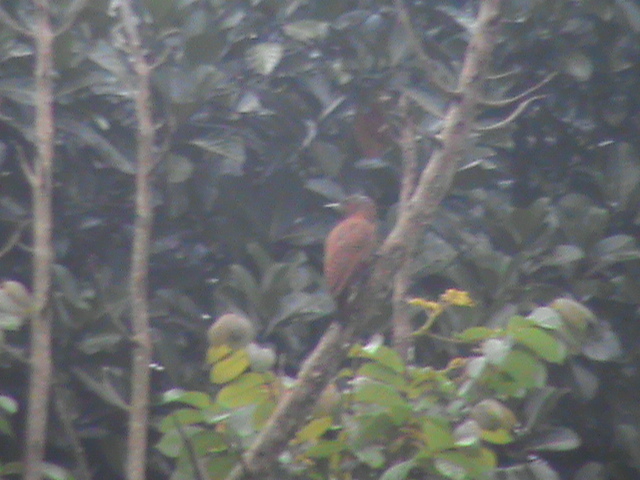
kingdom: Animalia
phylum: Chordata
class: Aves
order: Piciformes
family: Picidae
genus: Micropternus
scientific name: Micropternus brachyurus
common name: Rufous woodpecker
